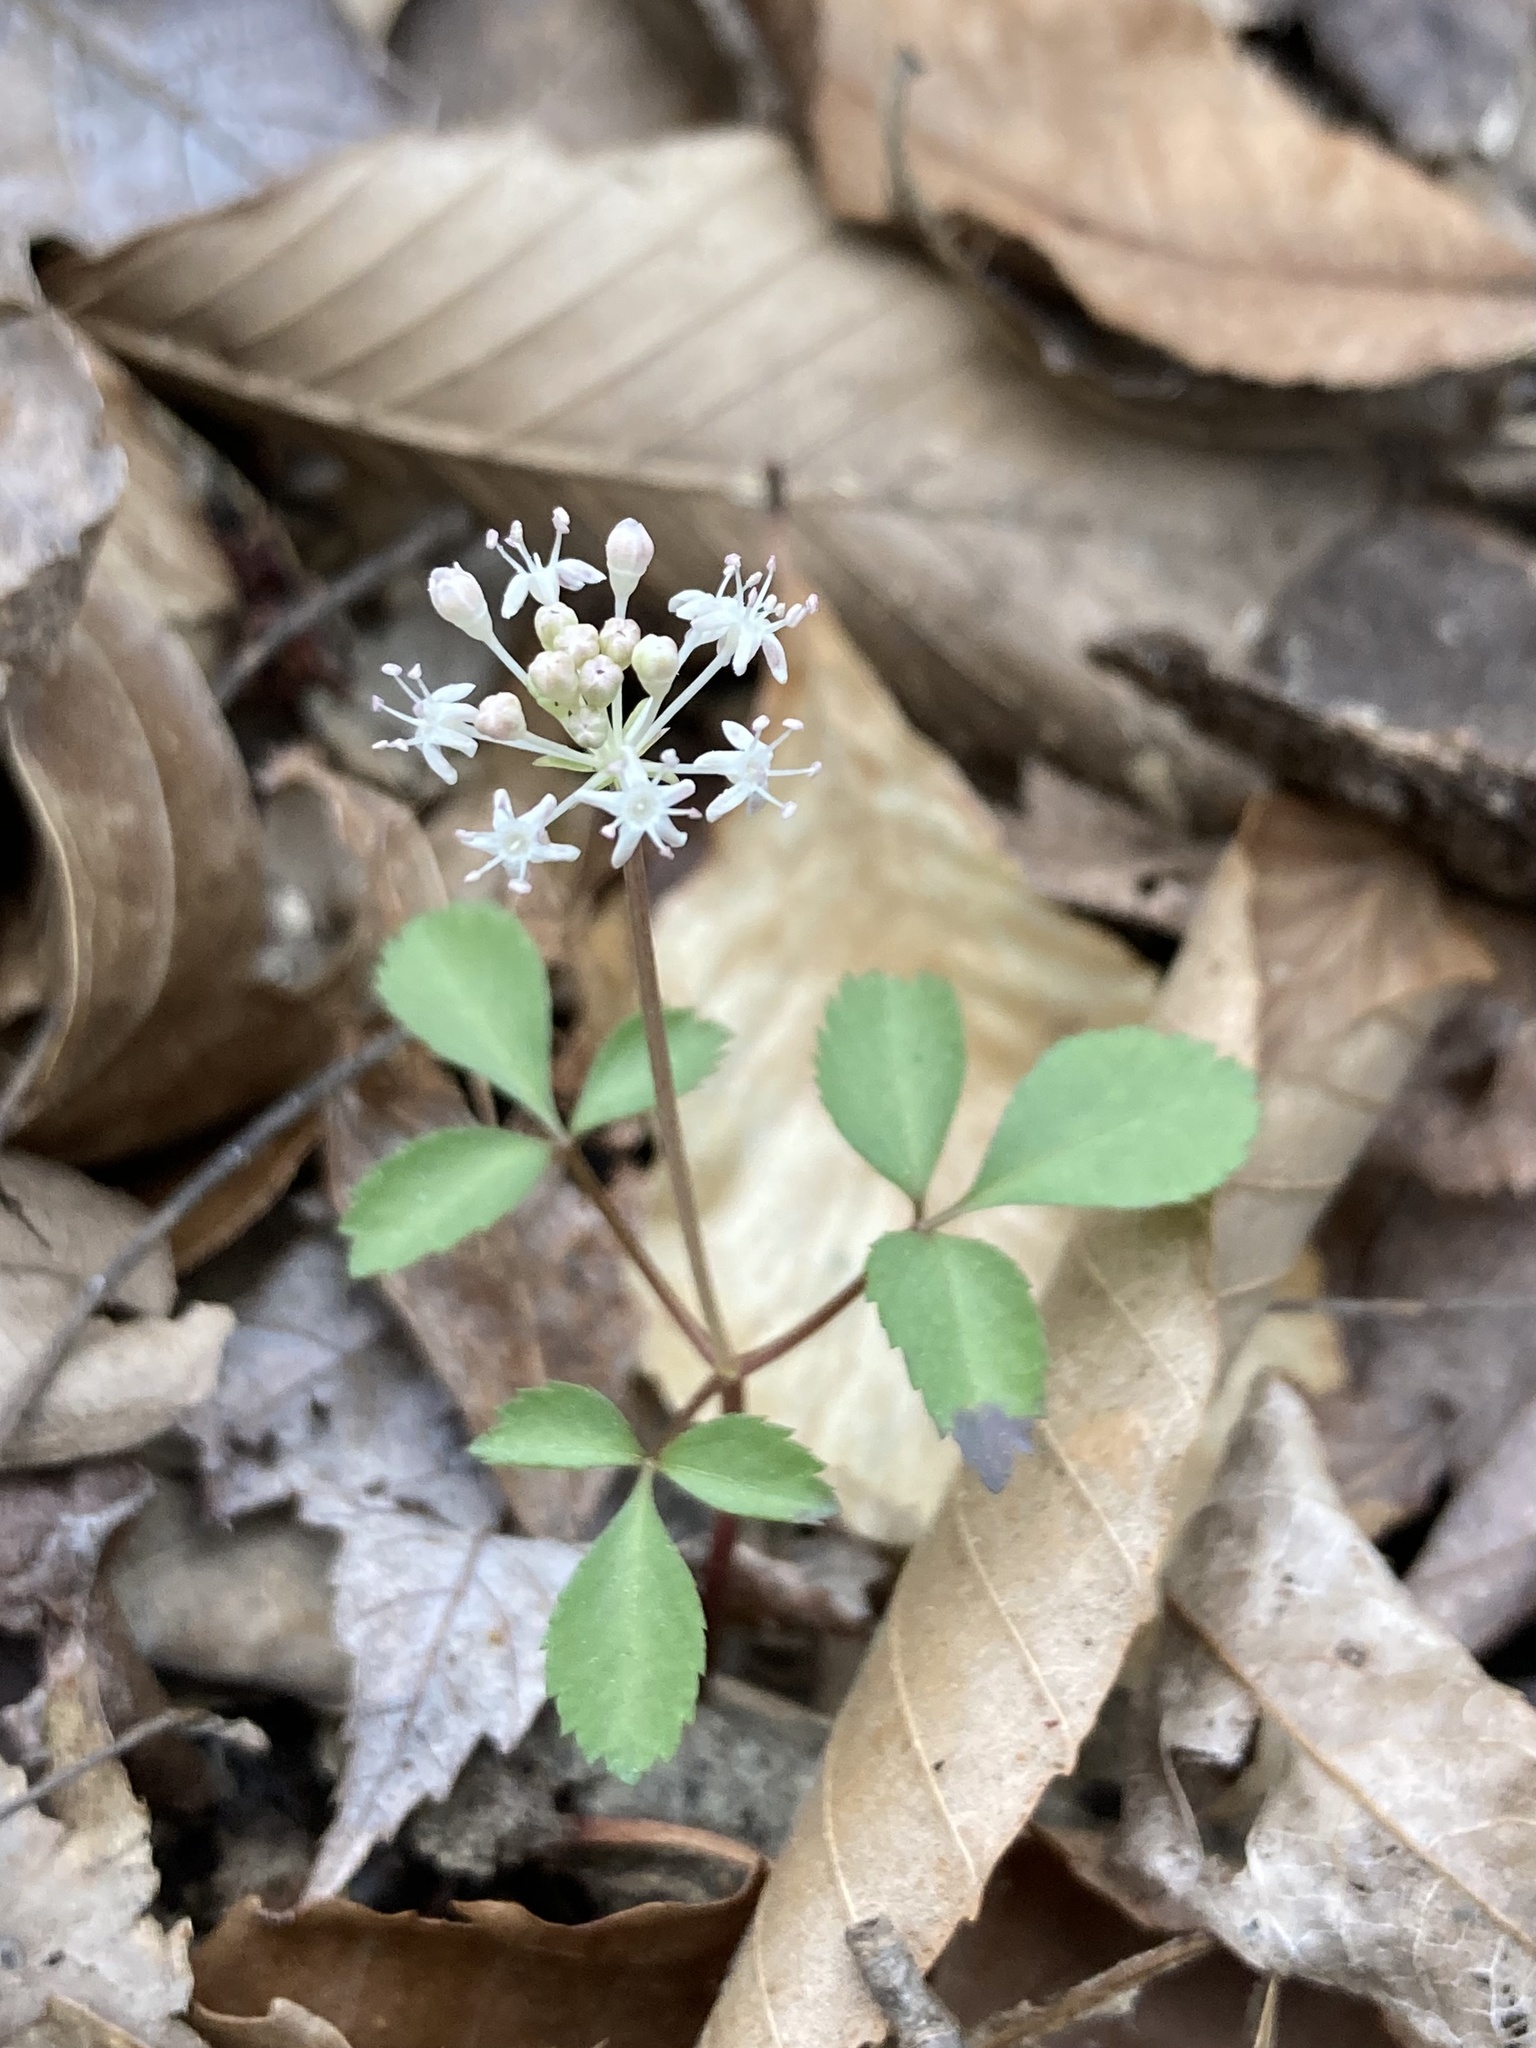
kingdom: Plantae
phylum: Tracheophyta
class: Magnoliopsida
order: Apiales
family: Araliaceae
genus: Panax
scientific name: Panax trifolius
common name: Dwarf ginseng
